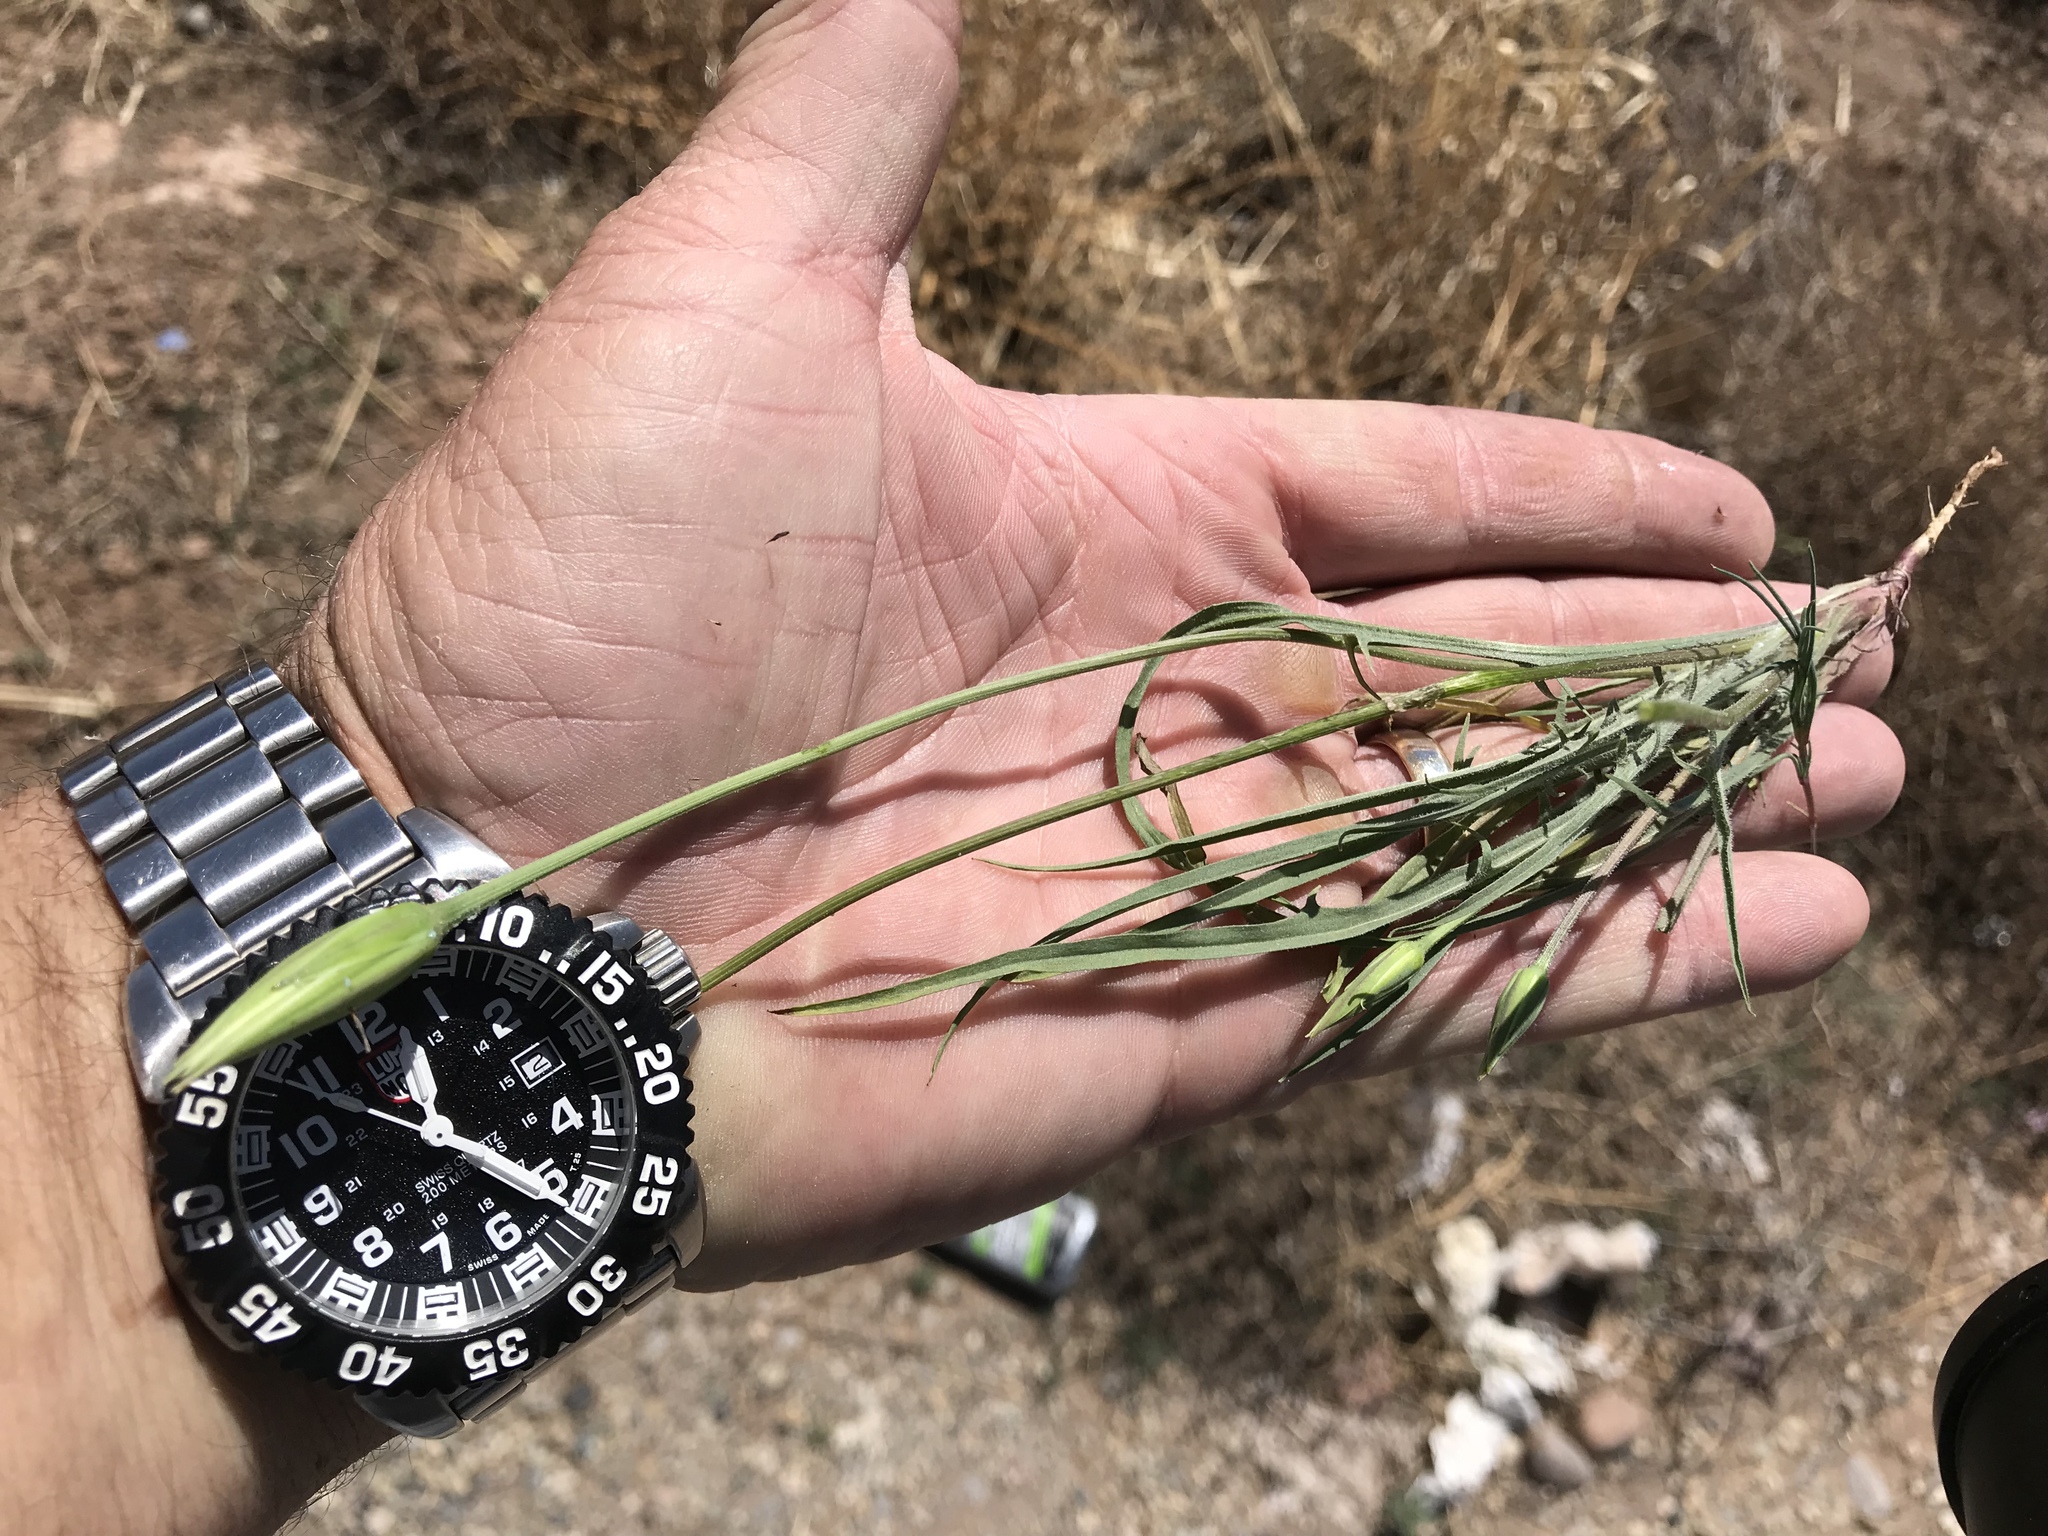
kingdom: Plantae
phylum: Tracheophyta
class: Magnoliopsida
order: Asterales
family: Asteraceae
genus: Microseris
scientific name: Microseris lindleyi
